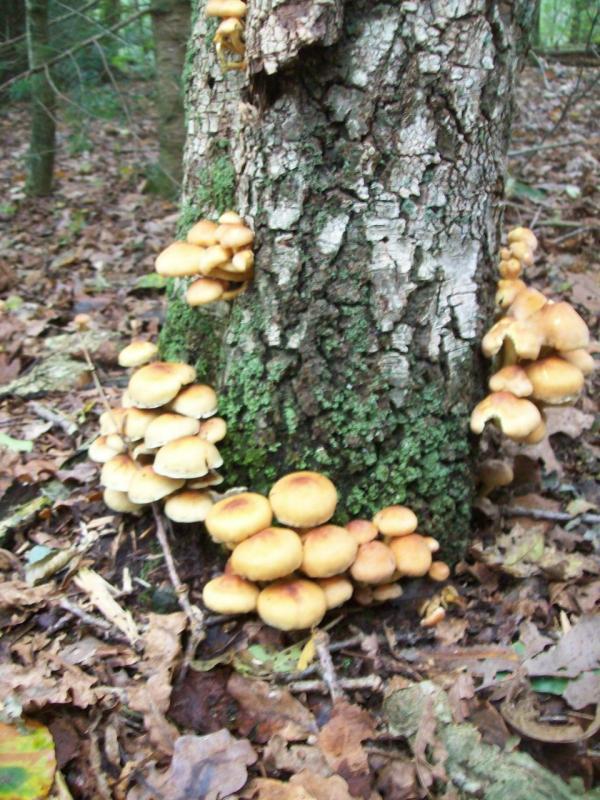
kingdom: Fungi
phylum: Basidiomycota
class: Agaricomycetes
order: Agaricales
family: Strophariaceae
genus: Hypholoma
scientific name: Hypholoma fasciculare
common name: Sulphur tuft
